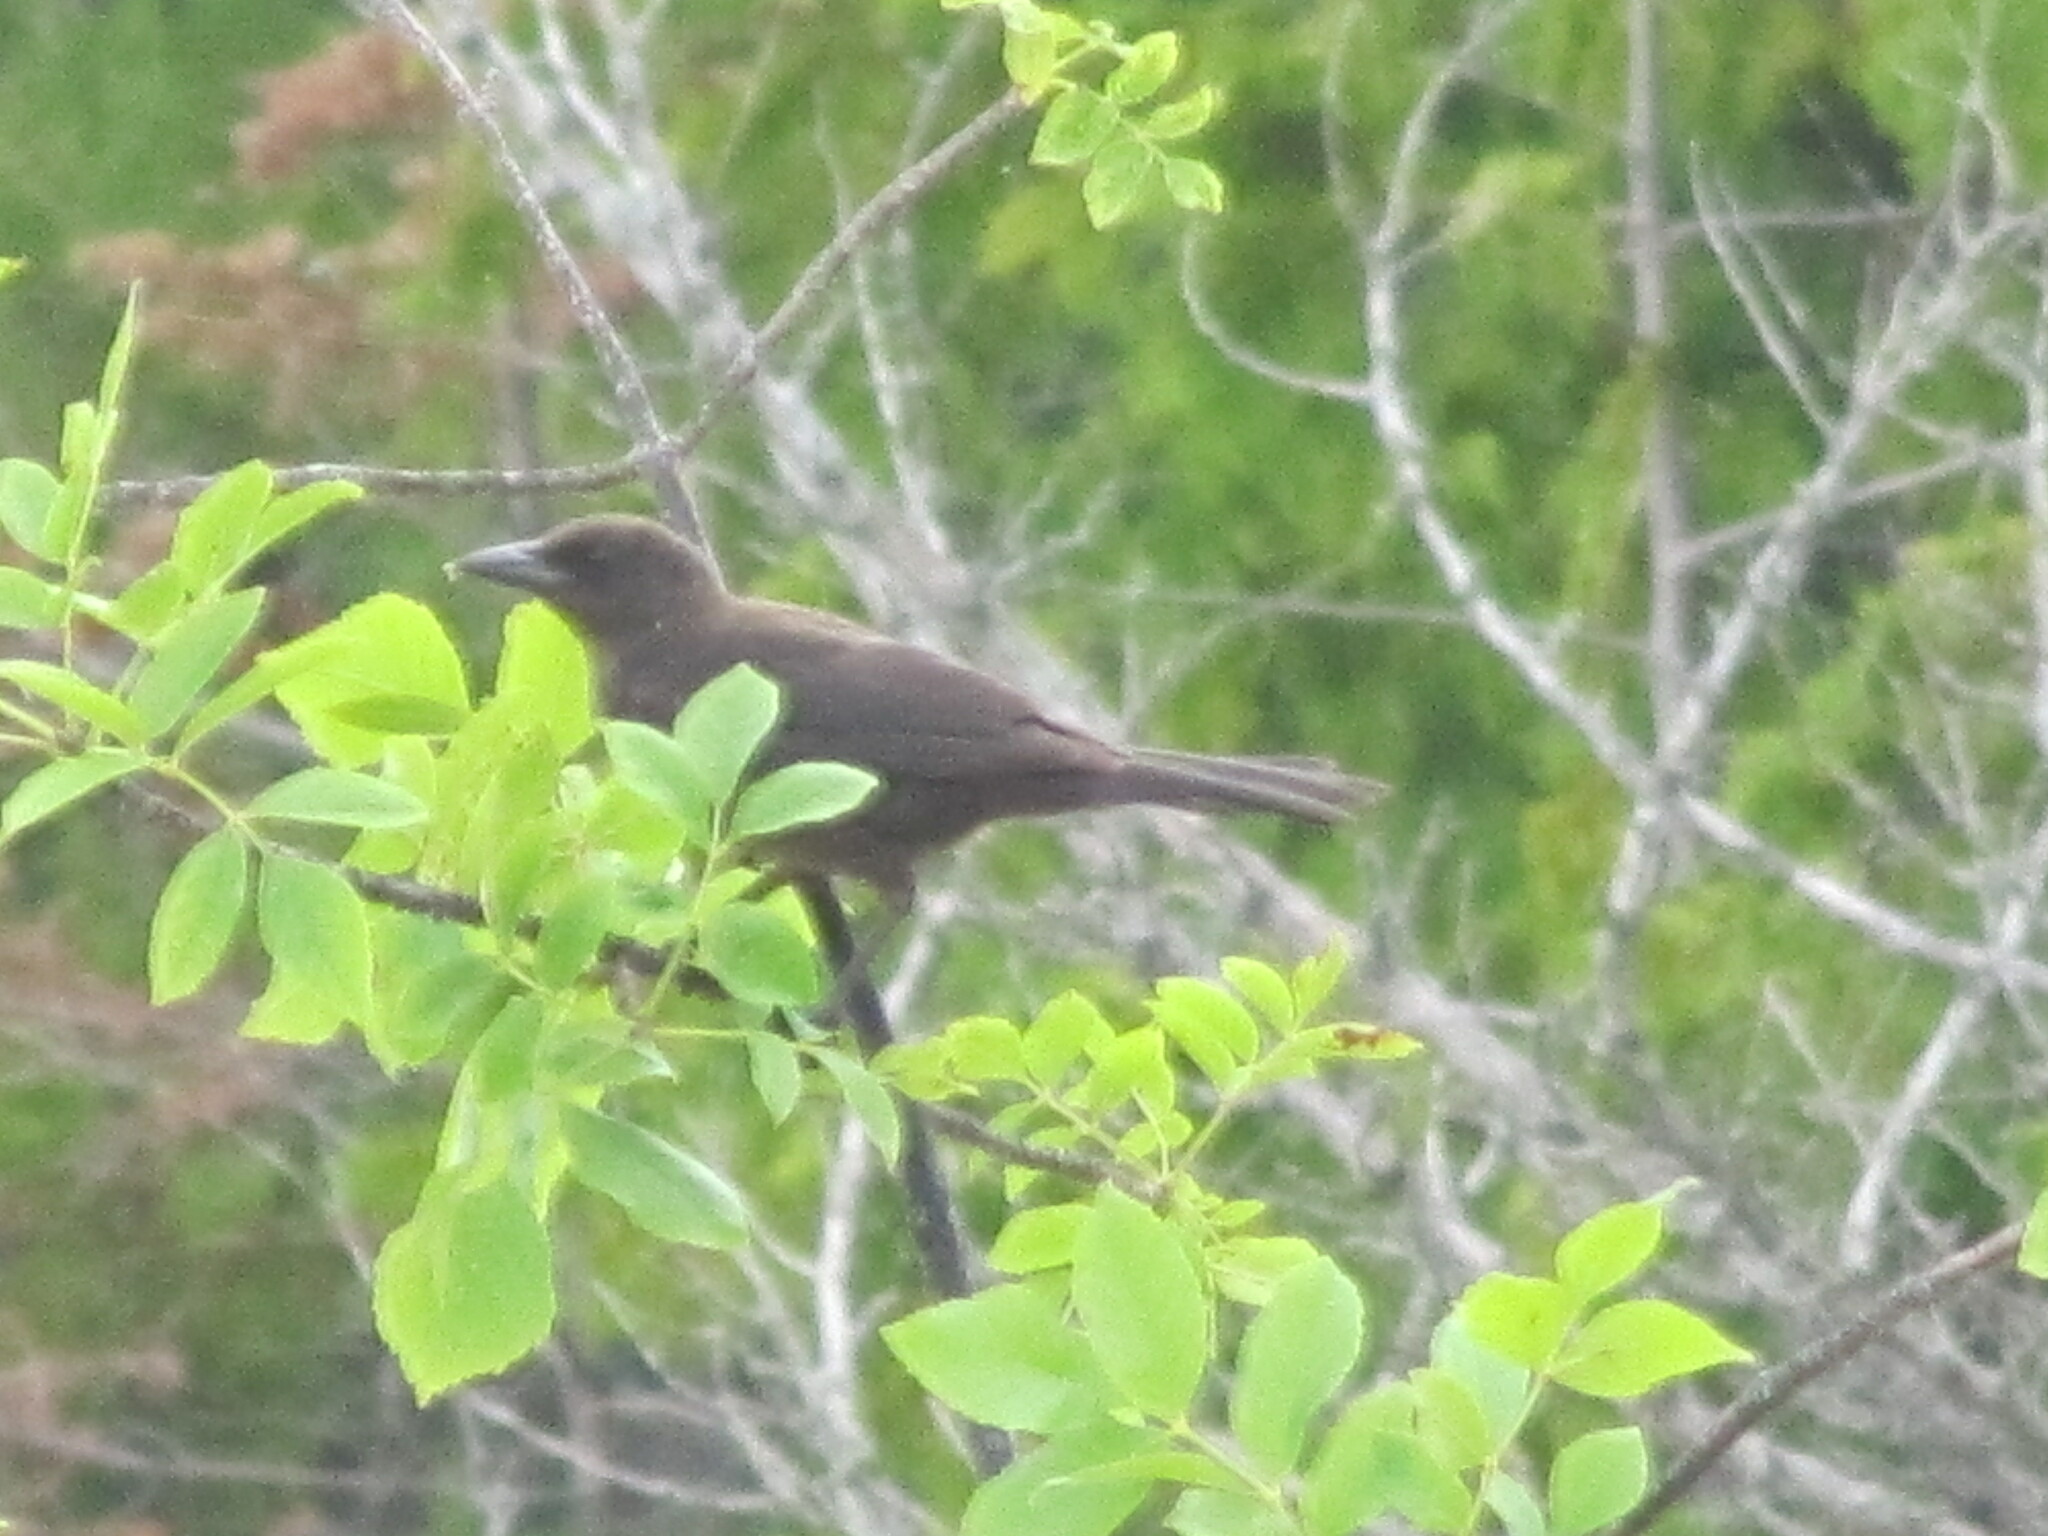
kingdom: Animalia
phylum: Chordata
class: Aves
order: Passeriformes
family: Icteridae
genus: Quiscalus
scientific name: Quiscalus quiscula
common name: Common grackle
